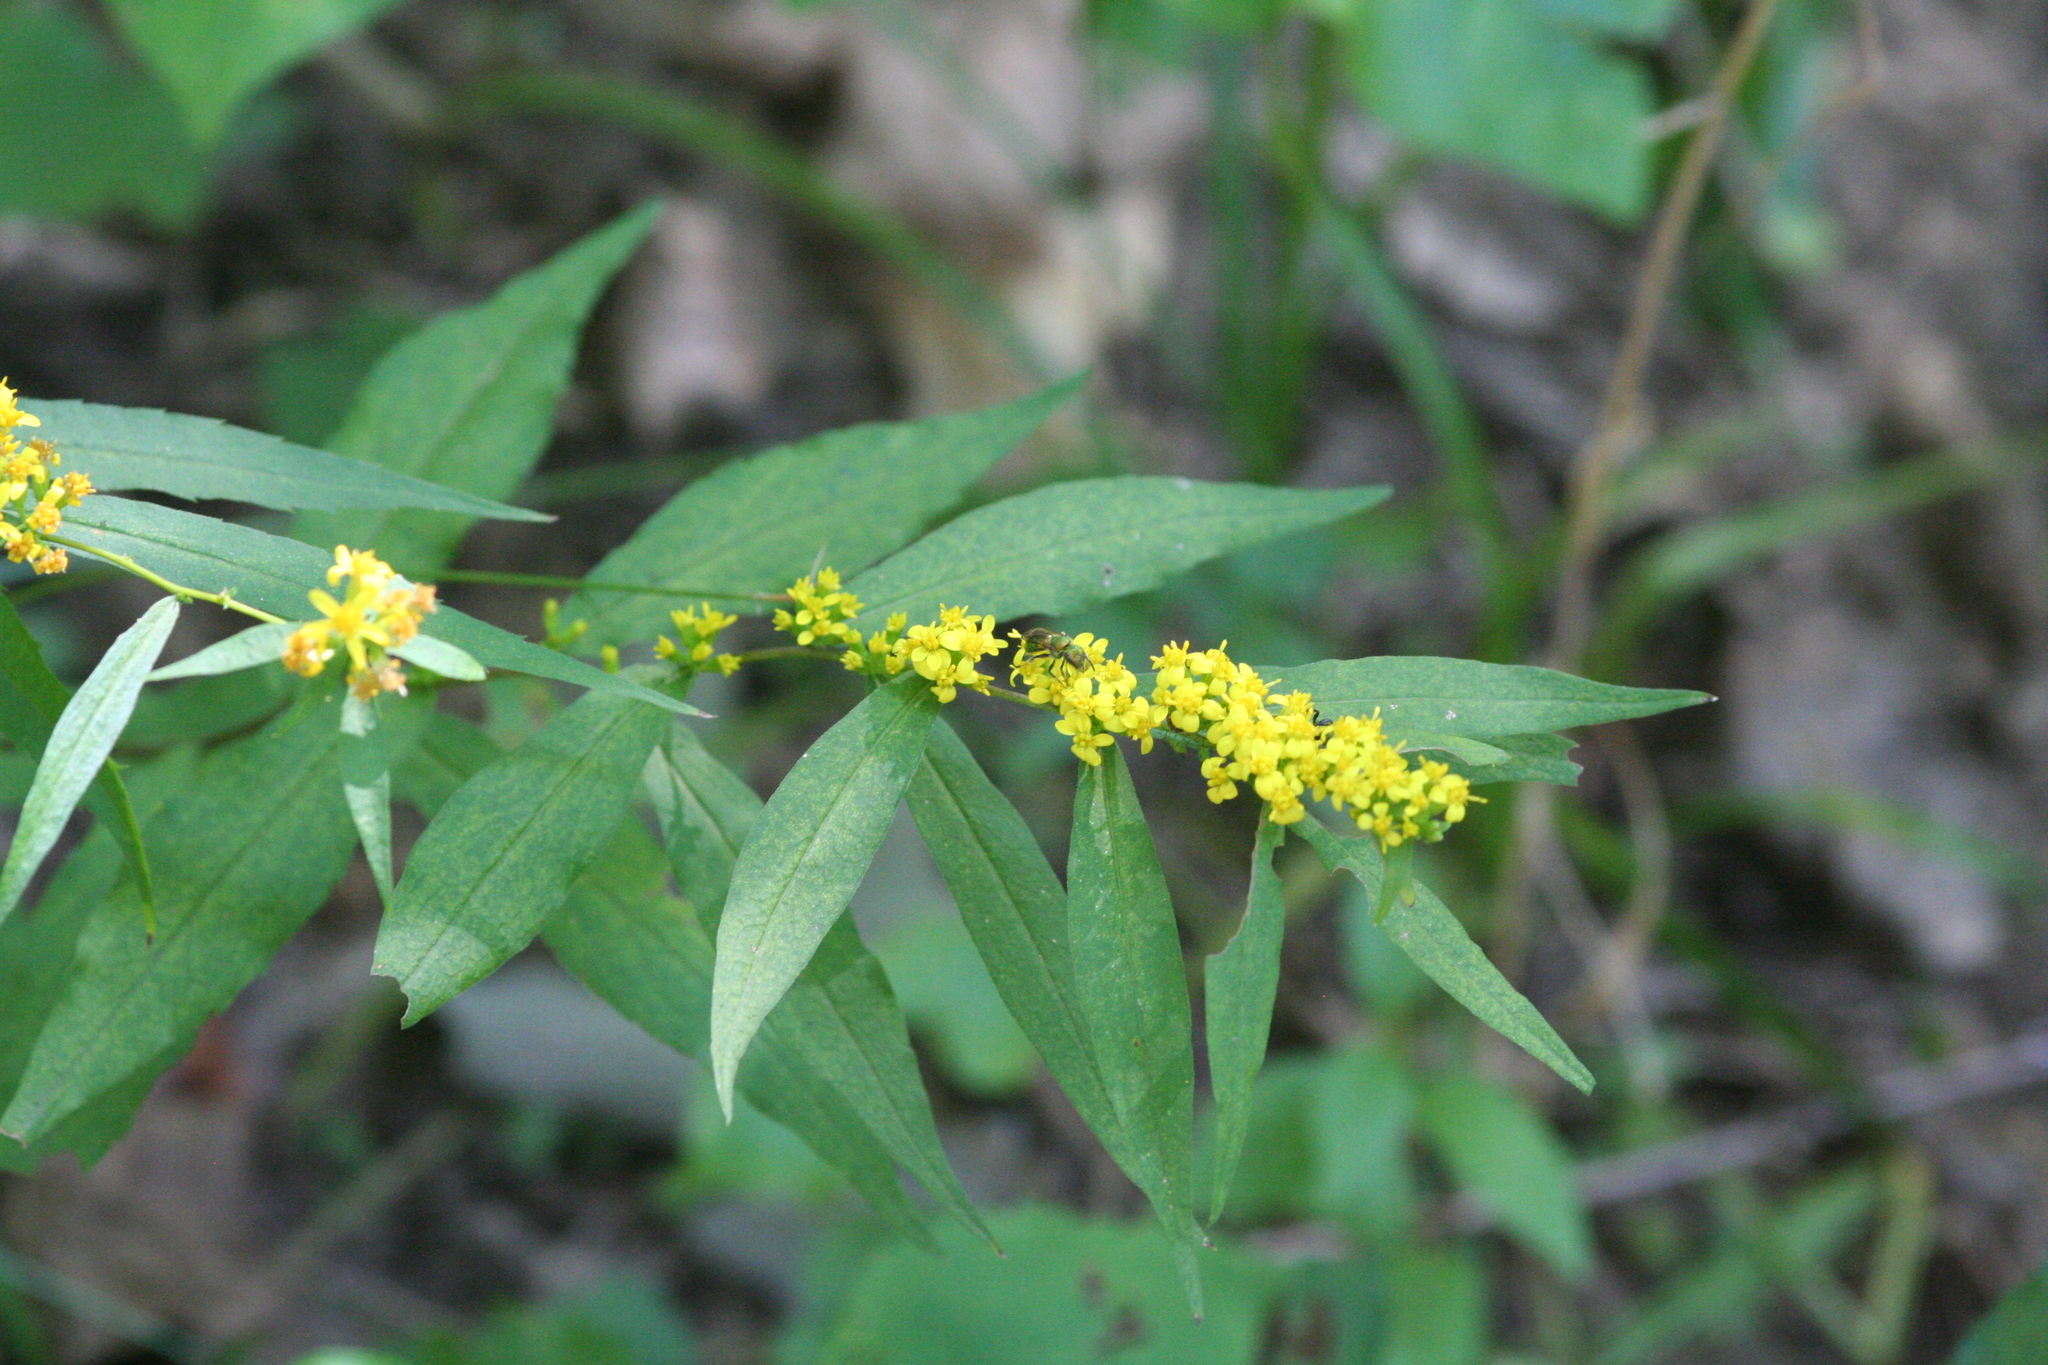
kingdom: Plantae
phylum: Tracheophyta
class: Magnoliopsida
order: Asterales
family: Asteraceae
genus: Solidago
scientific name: Solidago caesia
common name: Woodland goldenrod
